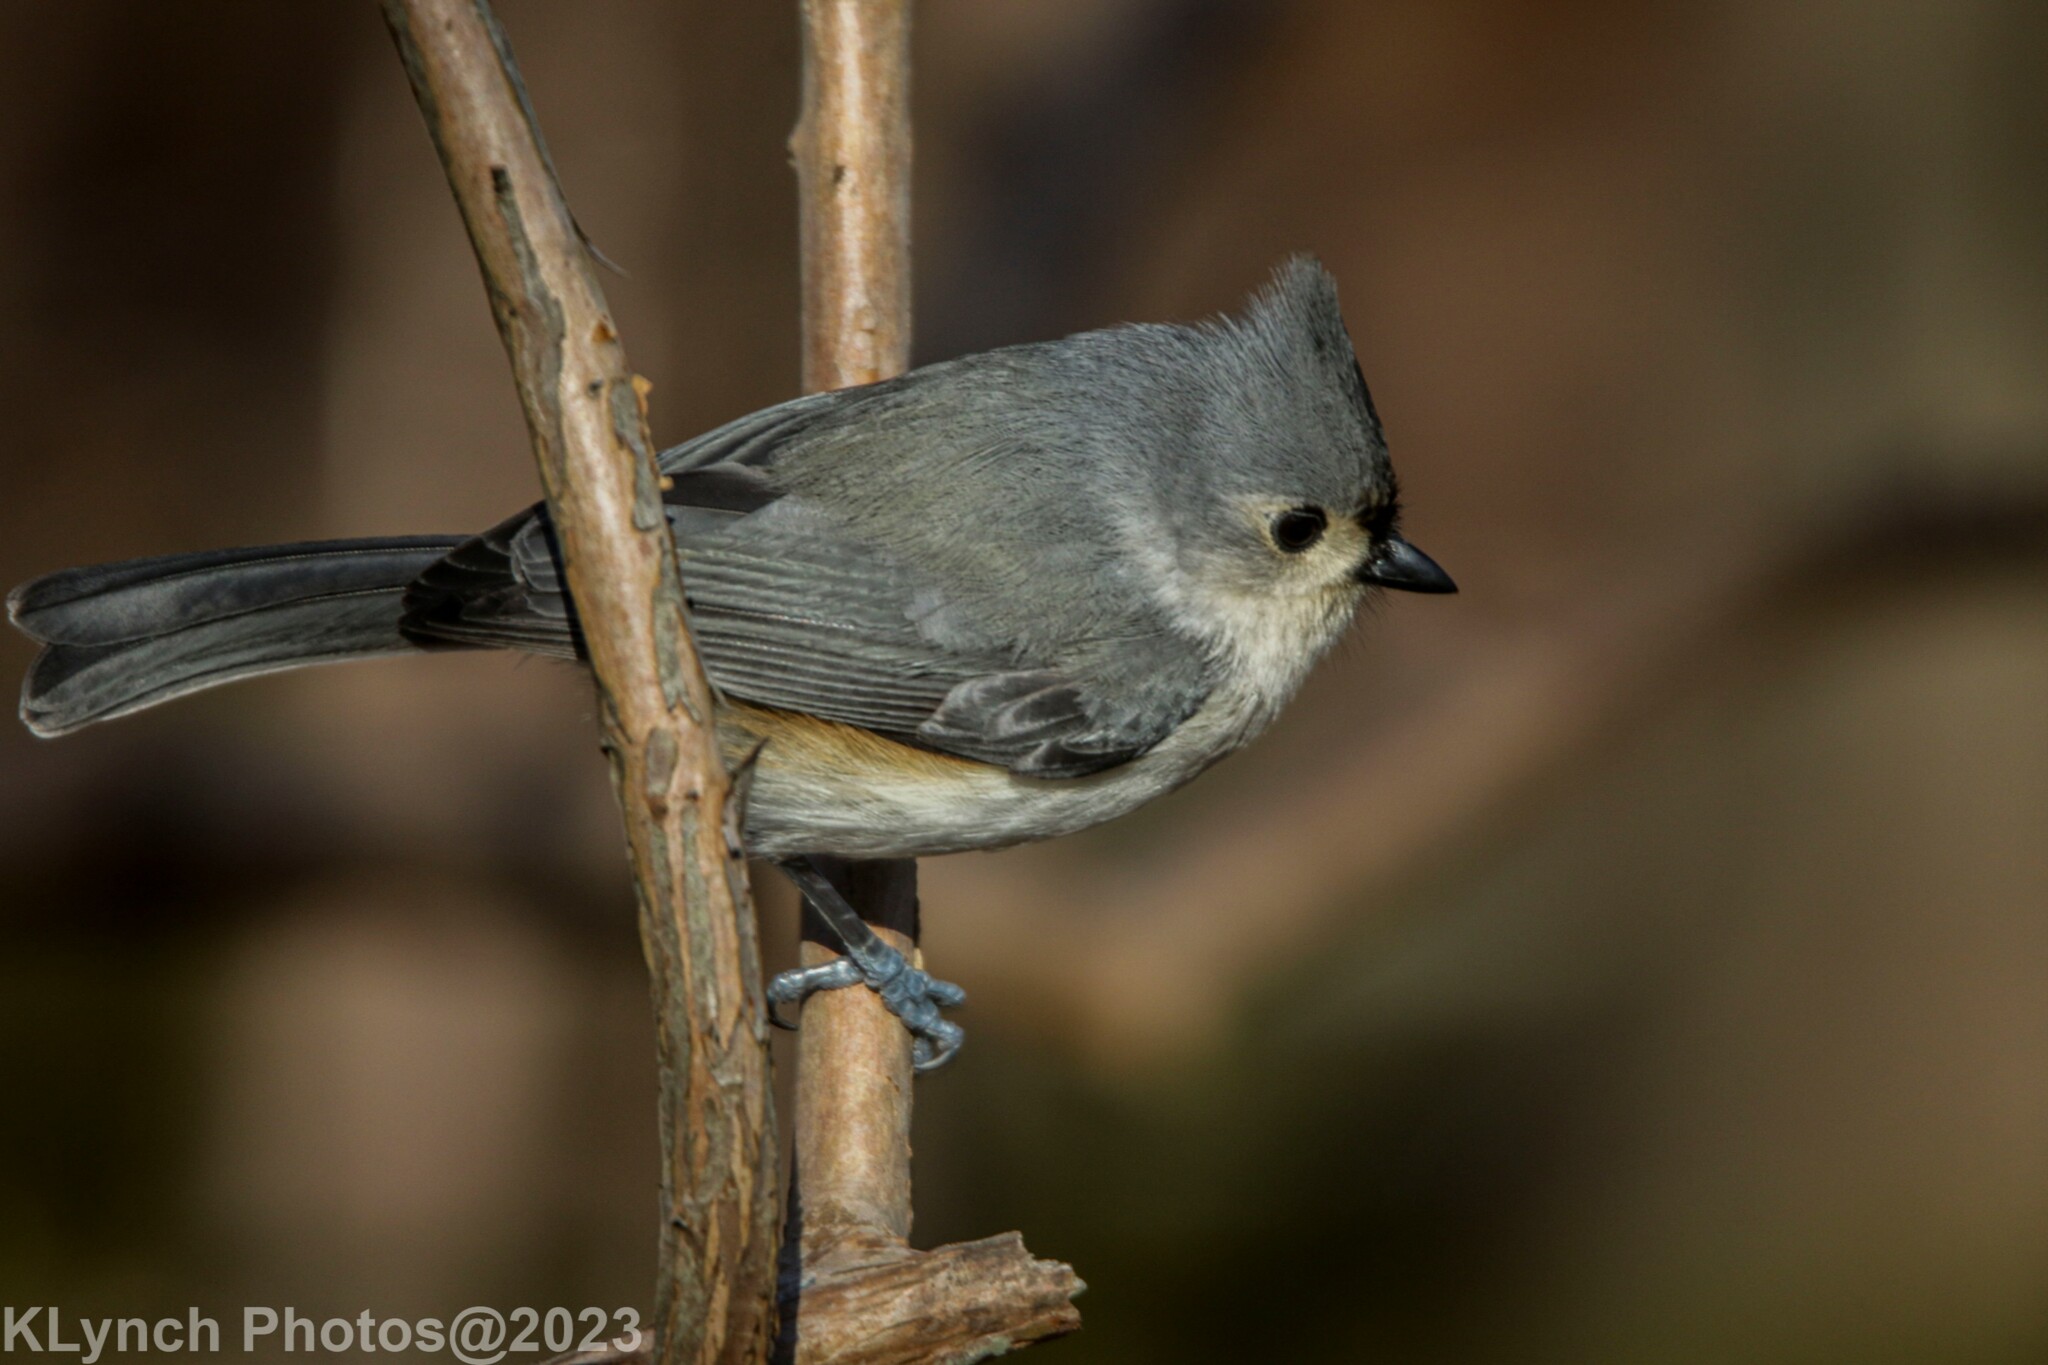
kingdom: Animalia
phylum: Chordata
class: Aves
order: Passeriformes
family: Paridae
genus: Baeolophus
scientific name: Baeolophus bicolor
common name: Tufted titmouse
